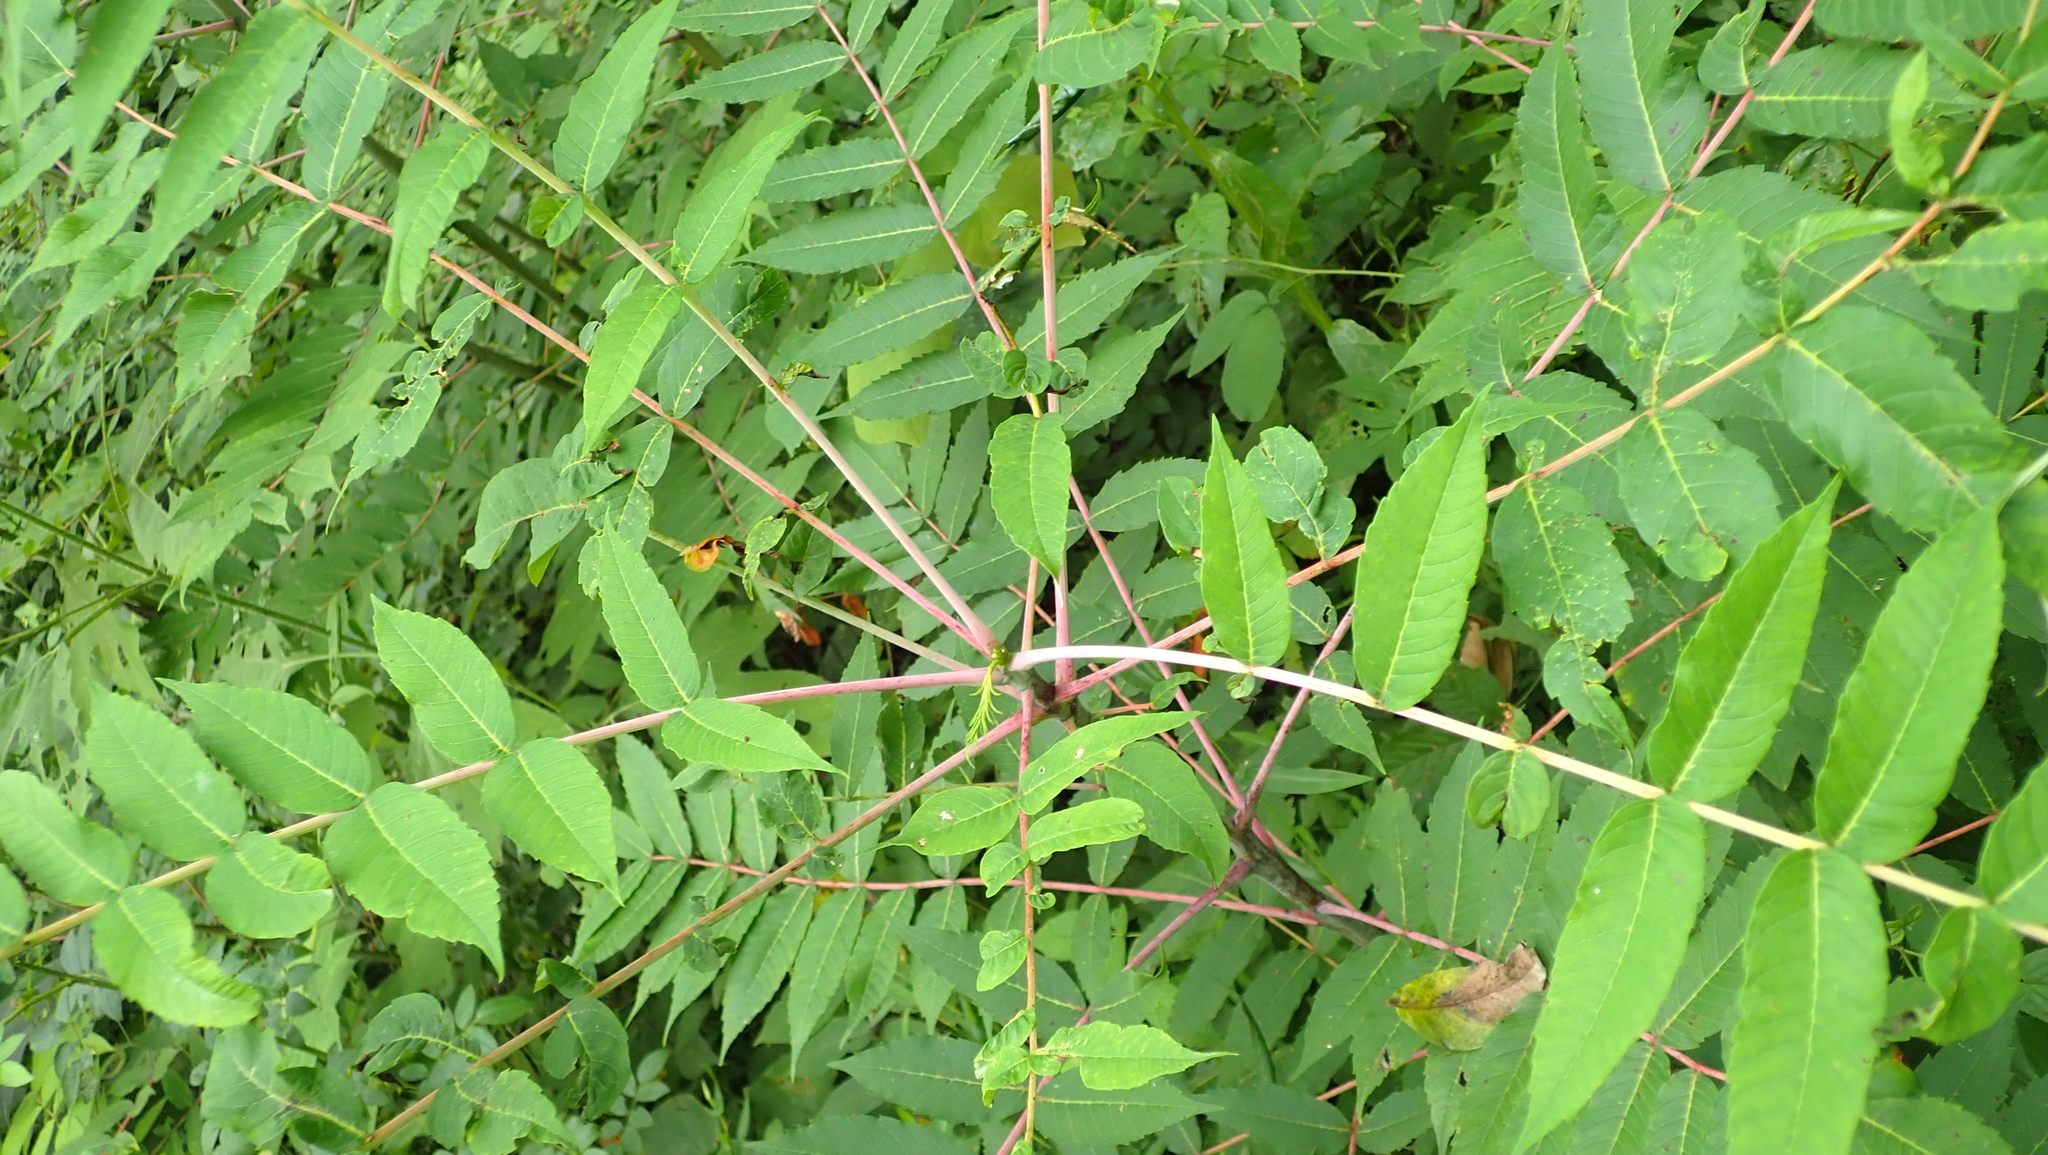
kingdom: Plantae
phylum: Tracheophyta
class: Magnoliopsida
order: Sapindales
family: Anacardiaceae
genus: Rhus
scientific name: Rhus glabra
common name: Scarlet sumac
